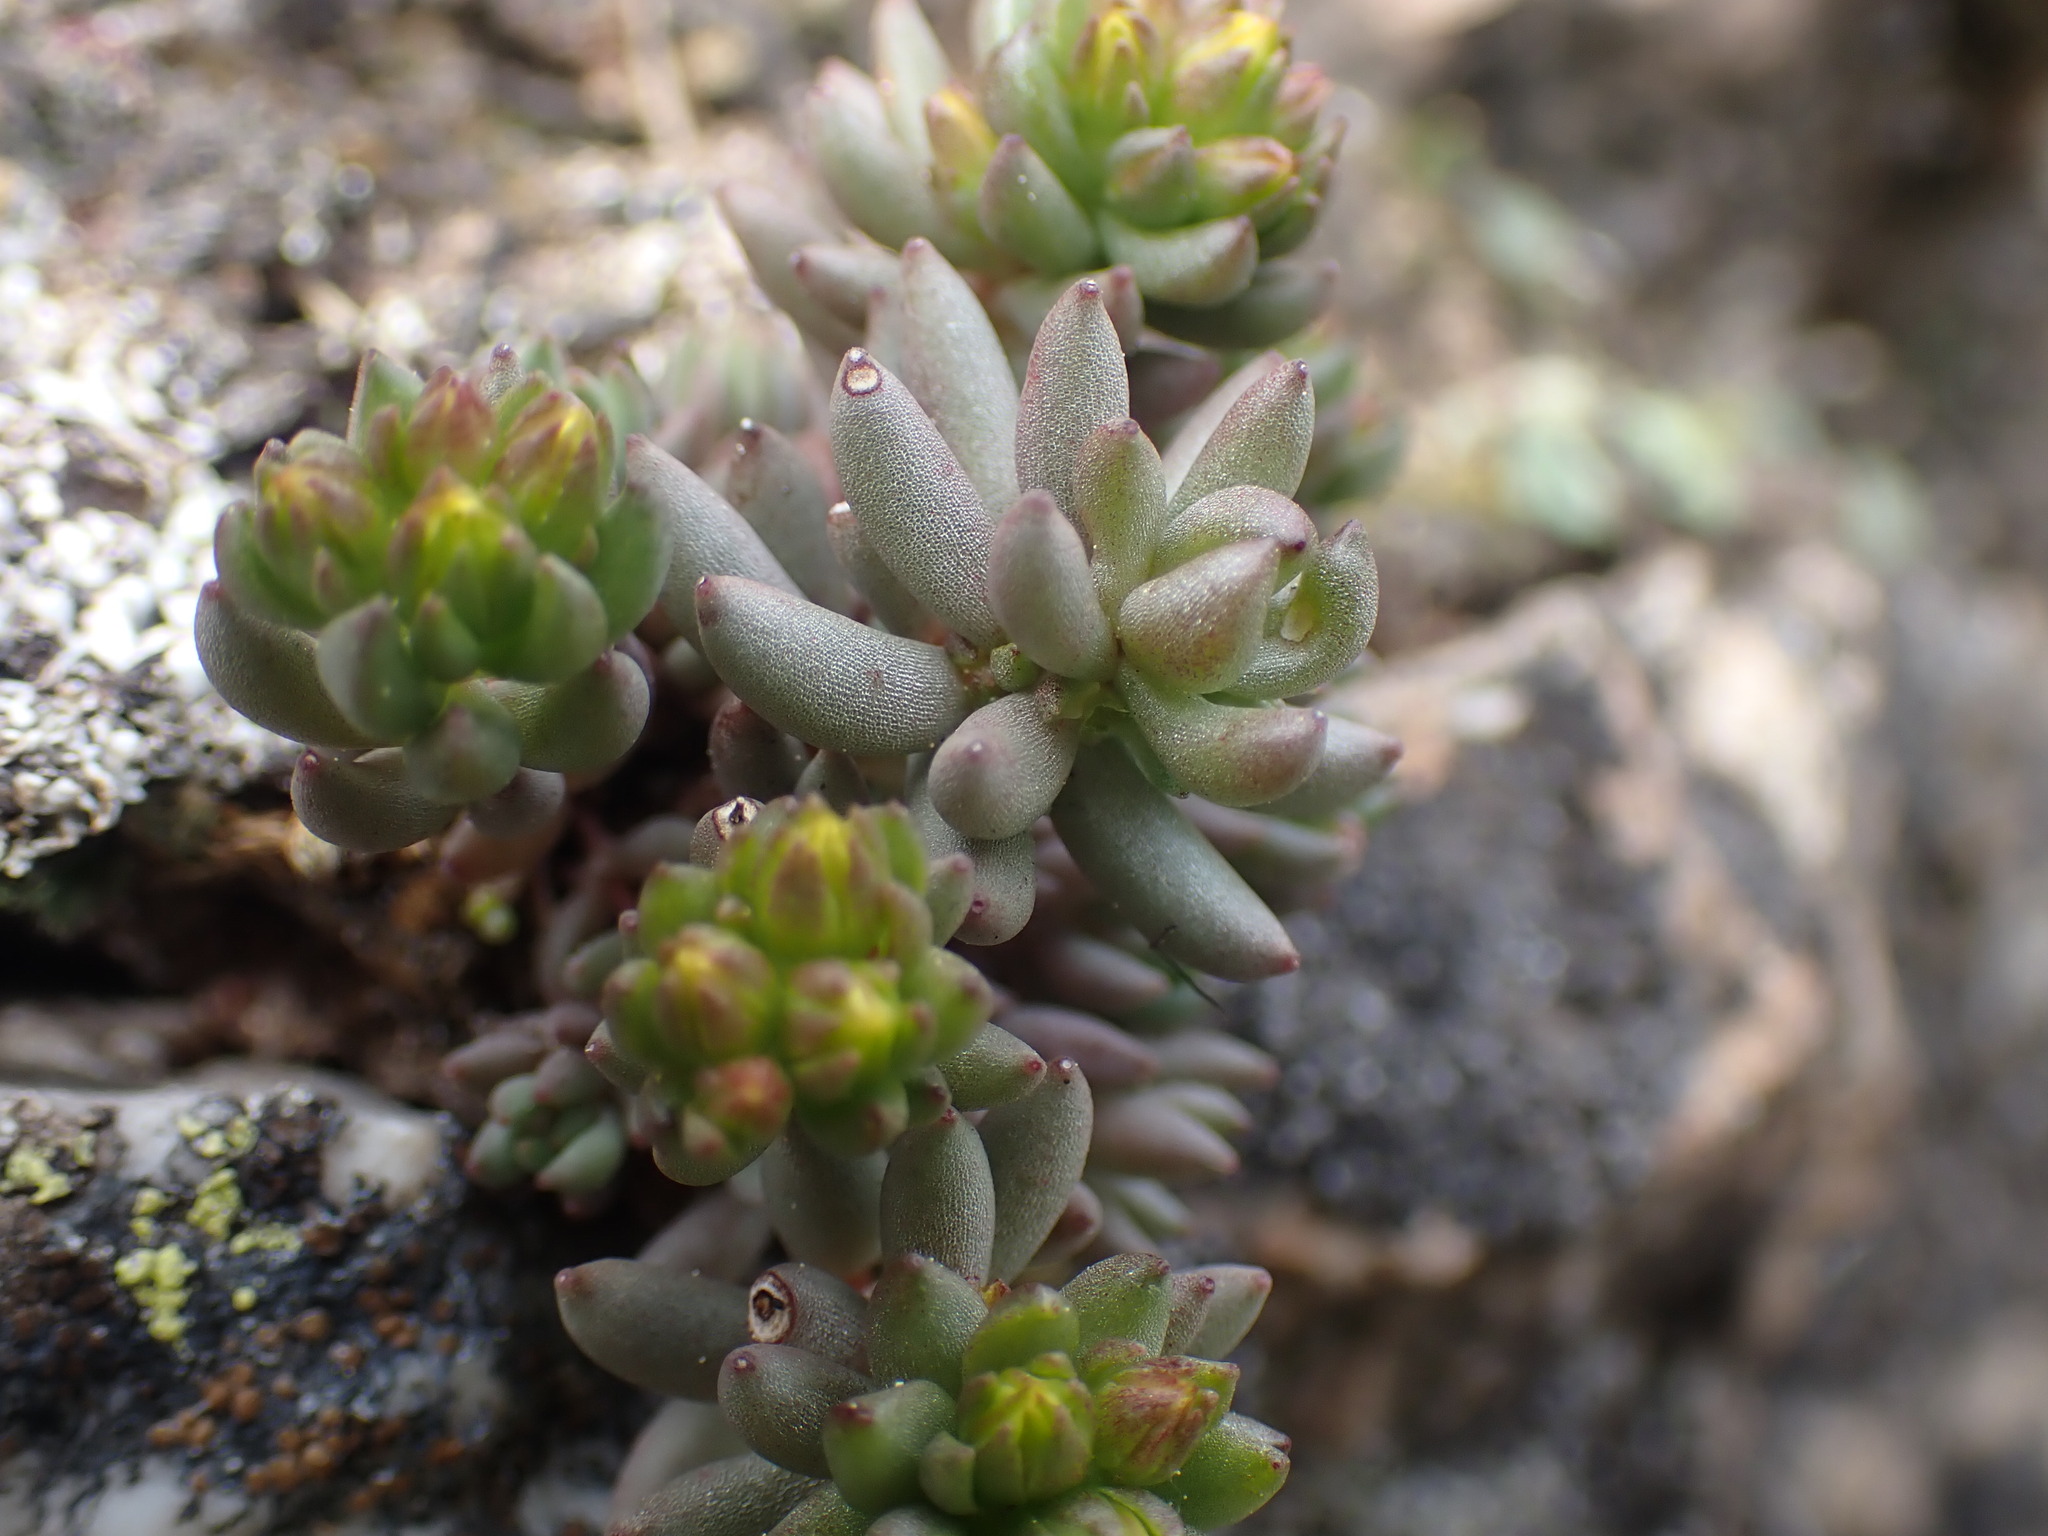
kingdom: Plantae
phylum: Tracheophyta
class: Magnoliopsida
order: Saxifragales
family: Crassulaceae
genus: Sedum
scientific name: Sedum lanceolatum
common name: Common stonecrop
